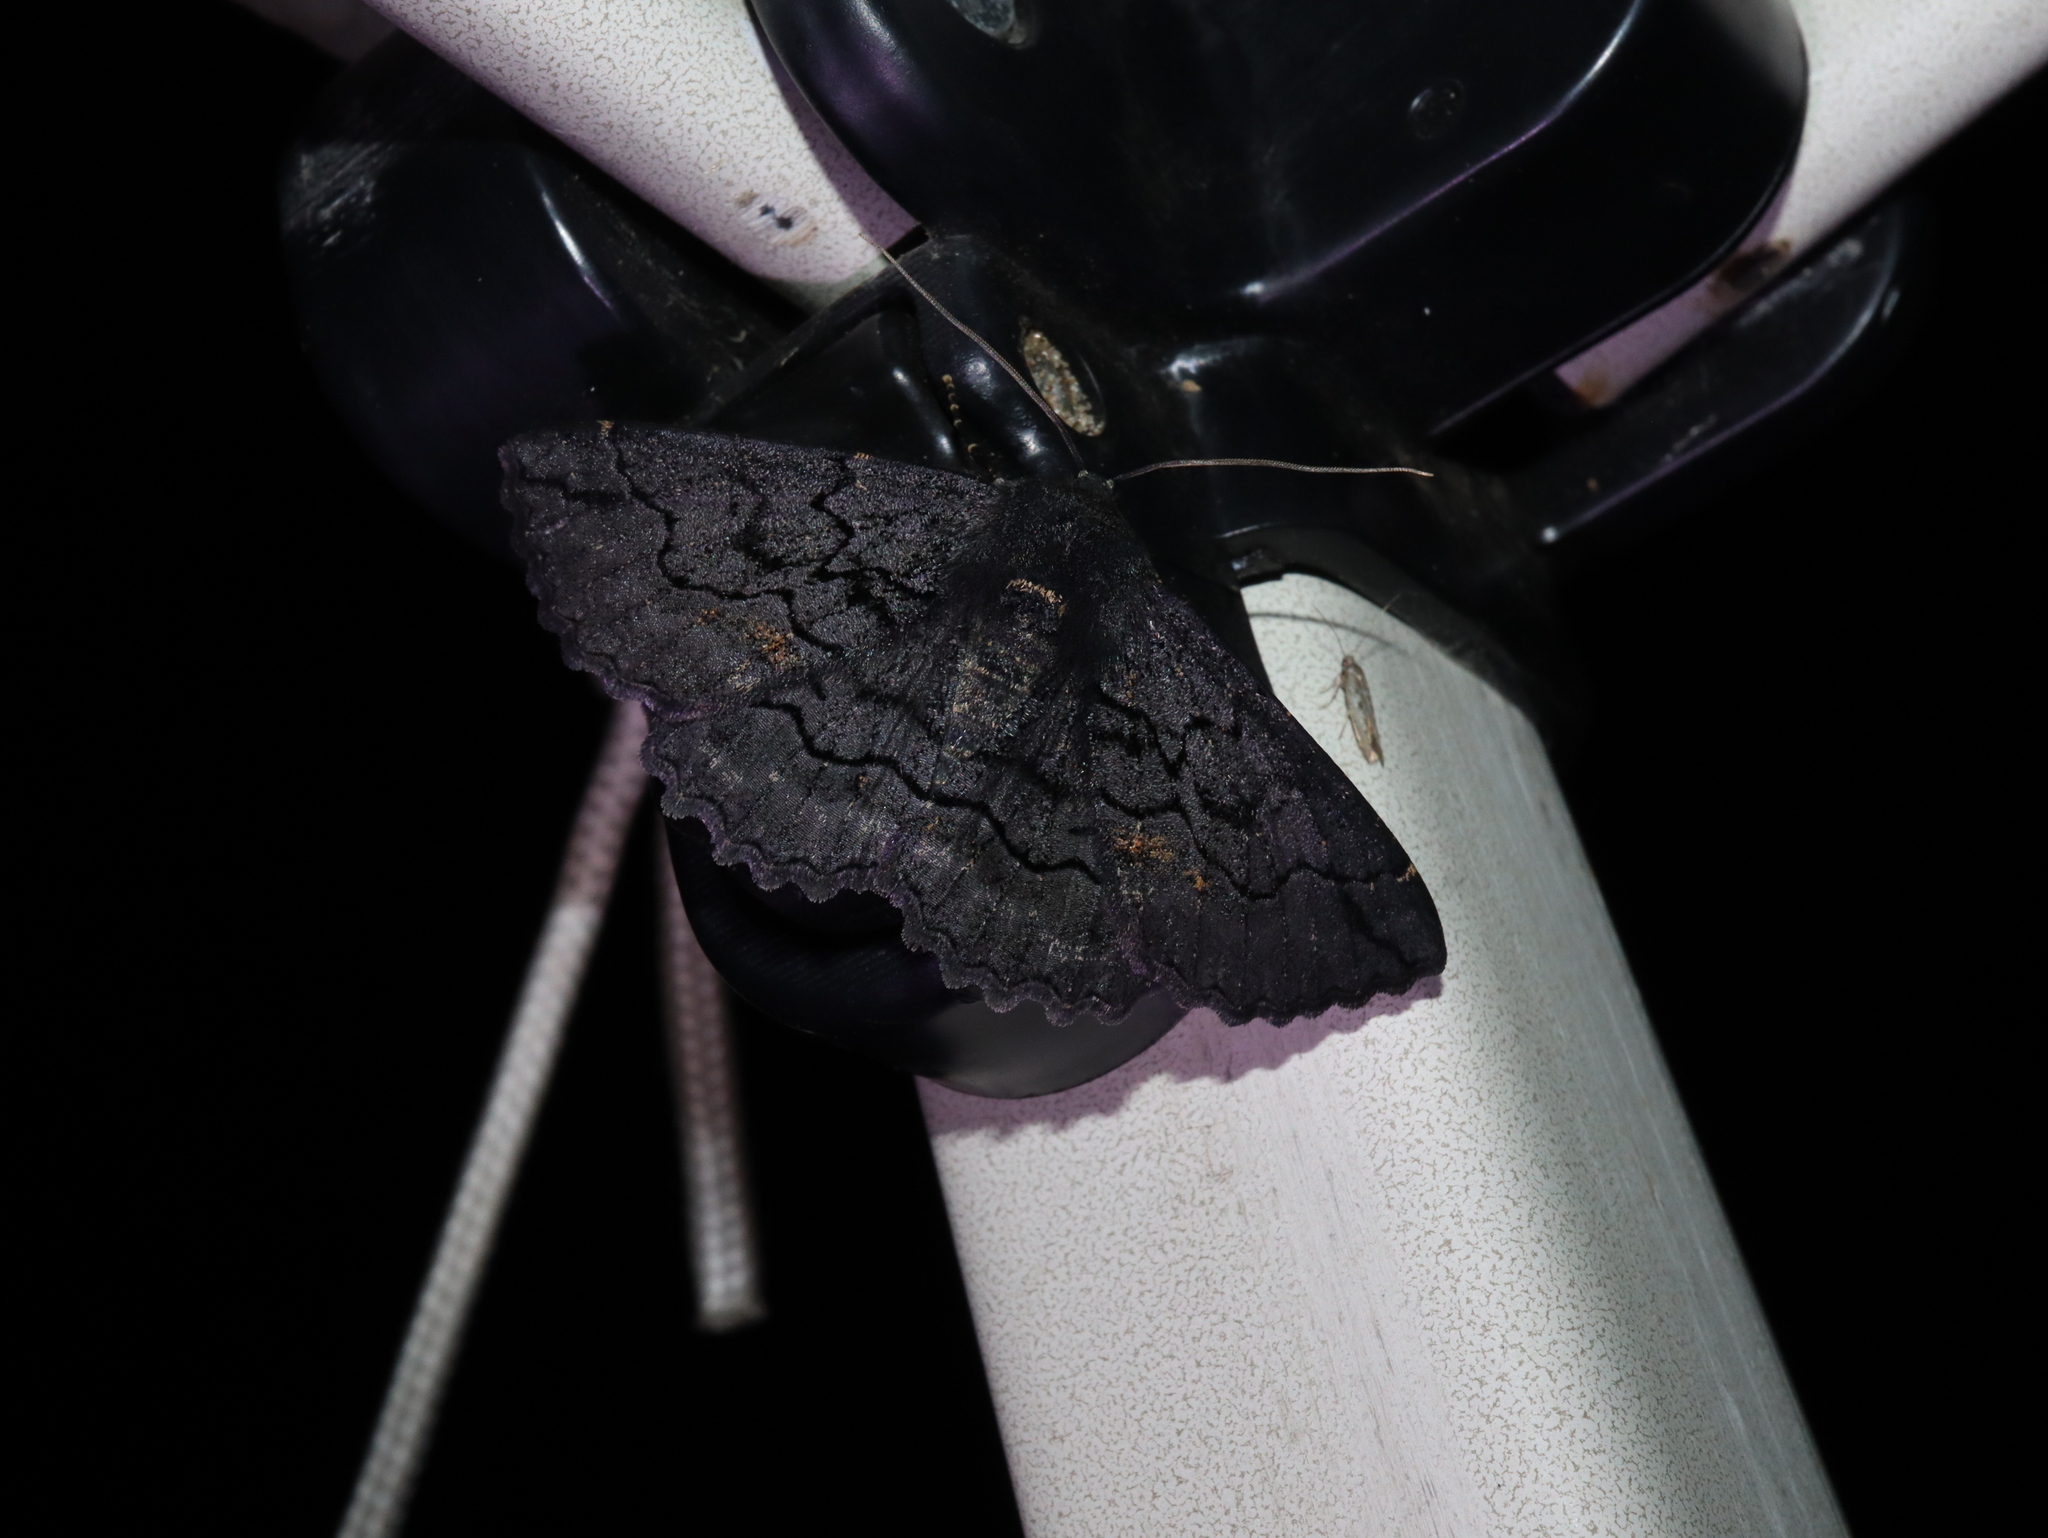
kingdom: Animalia
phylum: Arthropoda
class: Insecta
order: Lepidoptera
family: Geometridae
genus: Melanodes
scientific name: Melanodes anthracitaria
